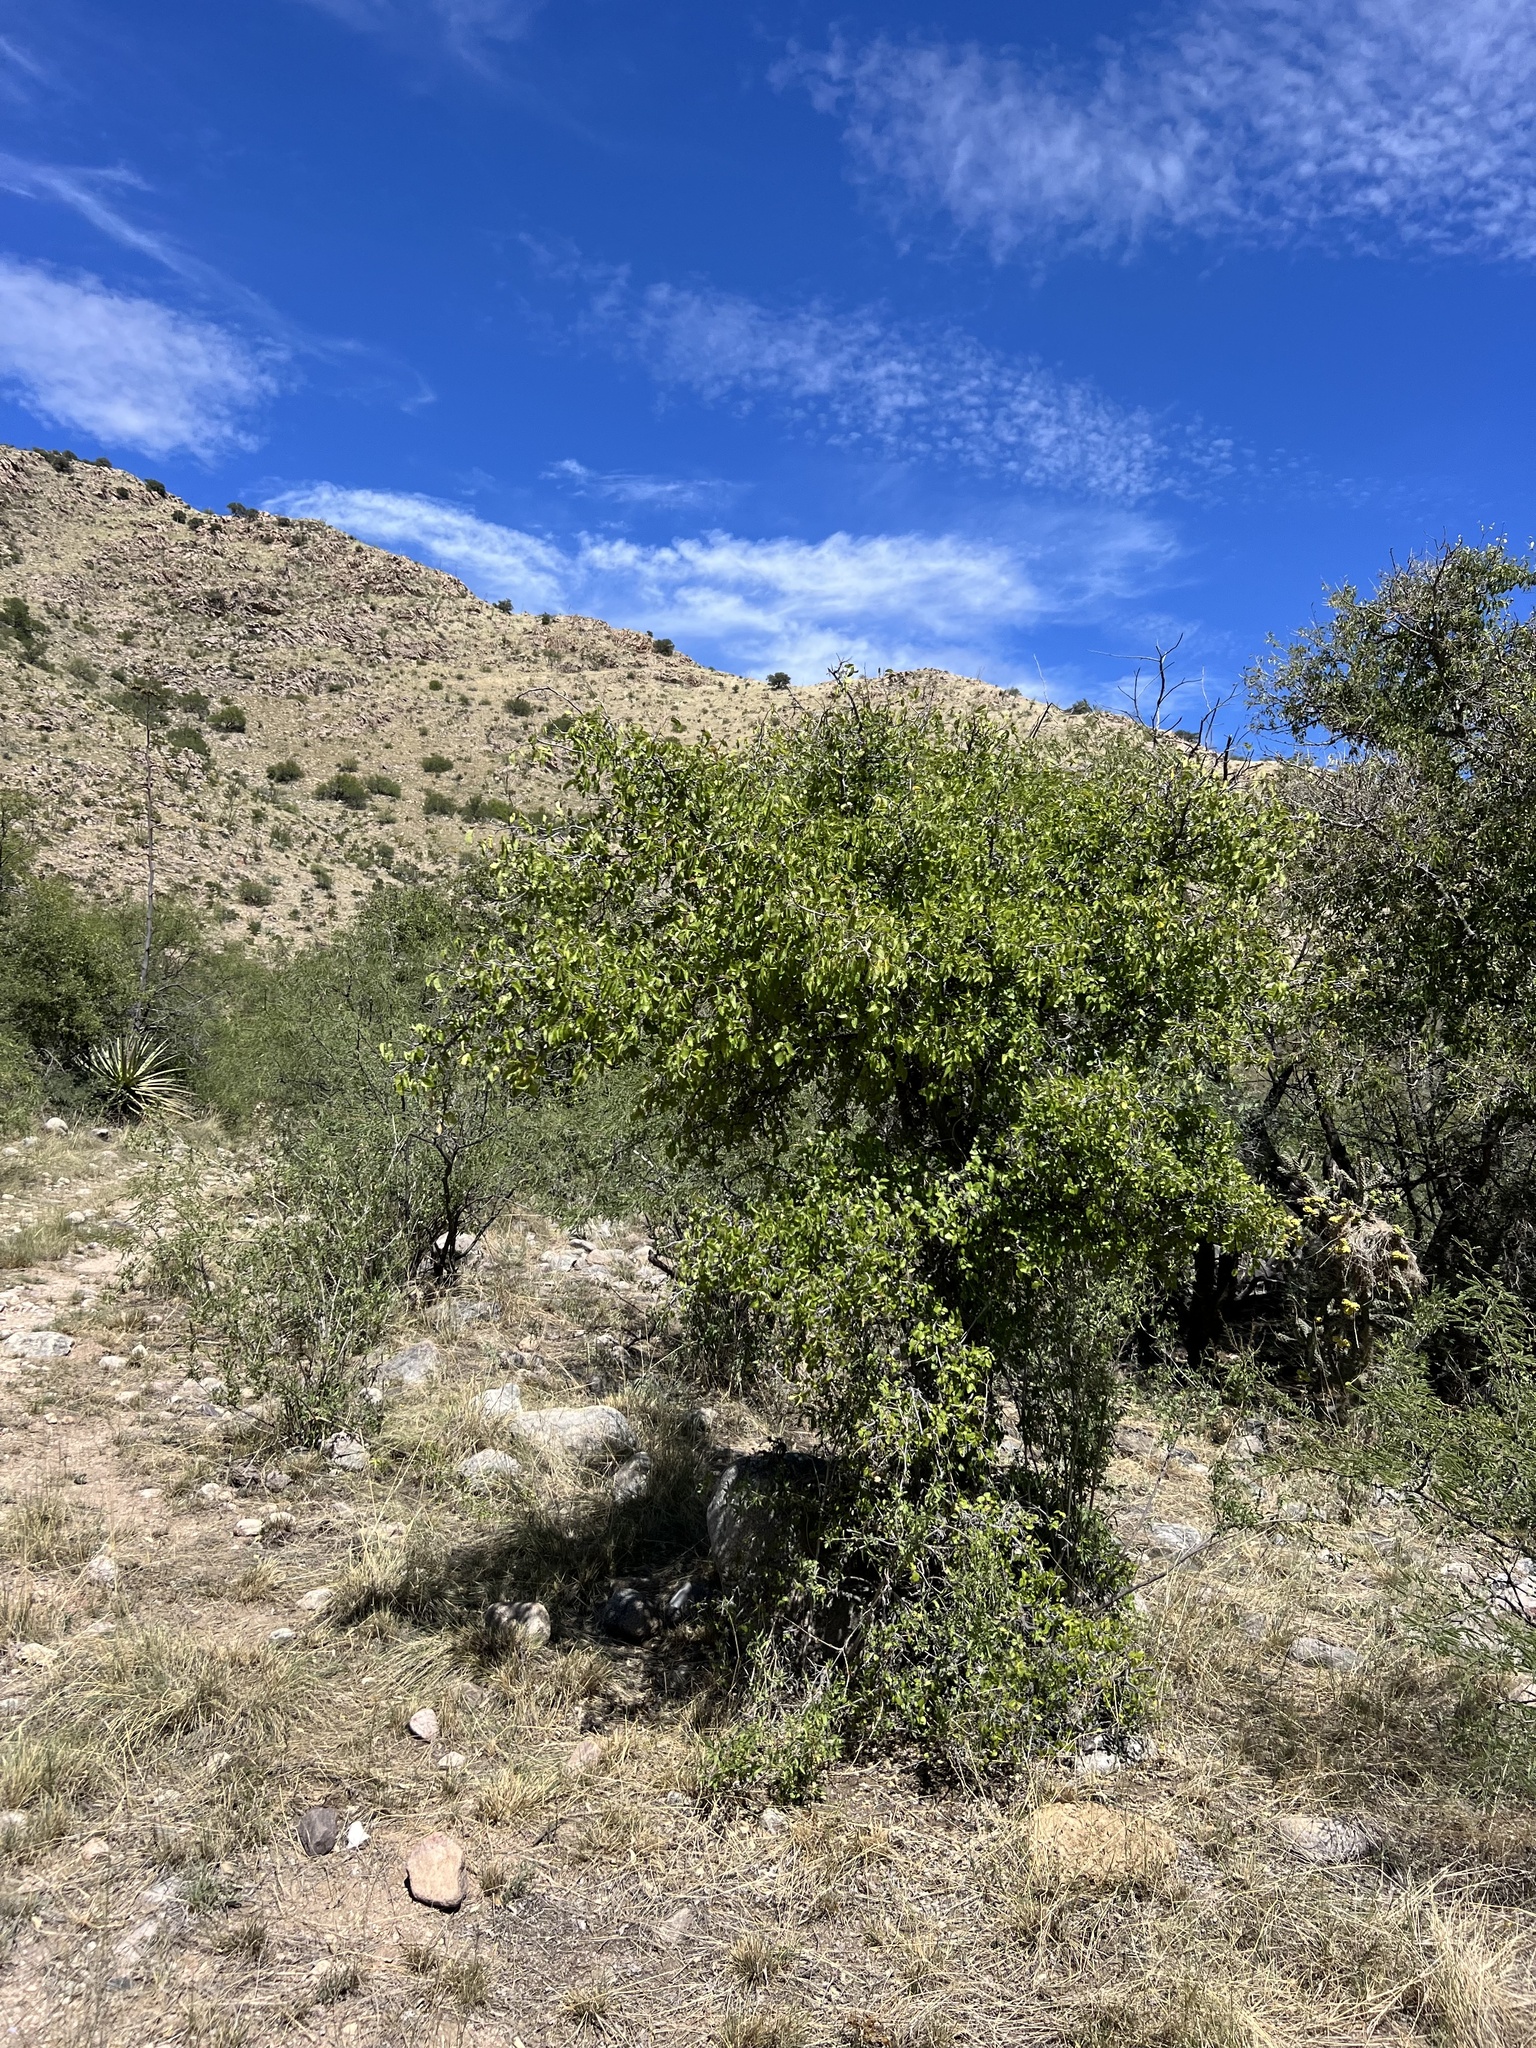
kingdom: Plantae
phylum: Tracheophyta
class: Magnoliopsida
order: Rosales
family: Cannabaceae
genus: Celtis
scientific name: Celtis reticulata
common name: Netleaf hackberry
